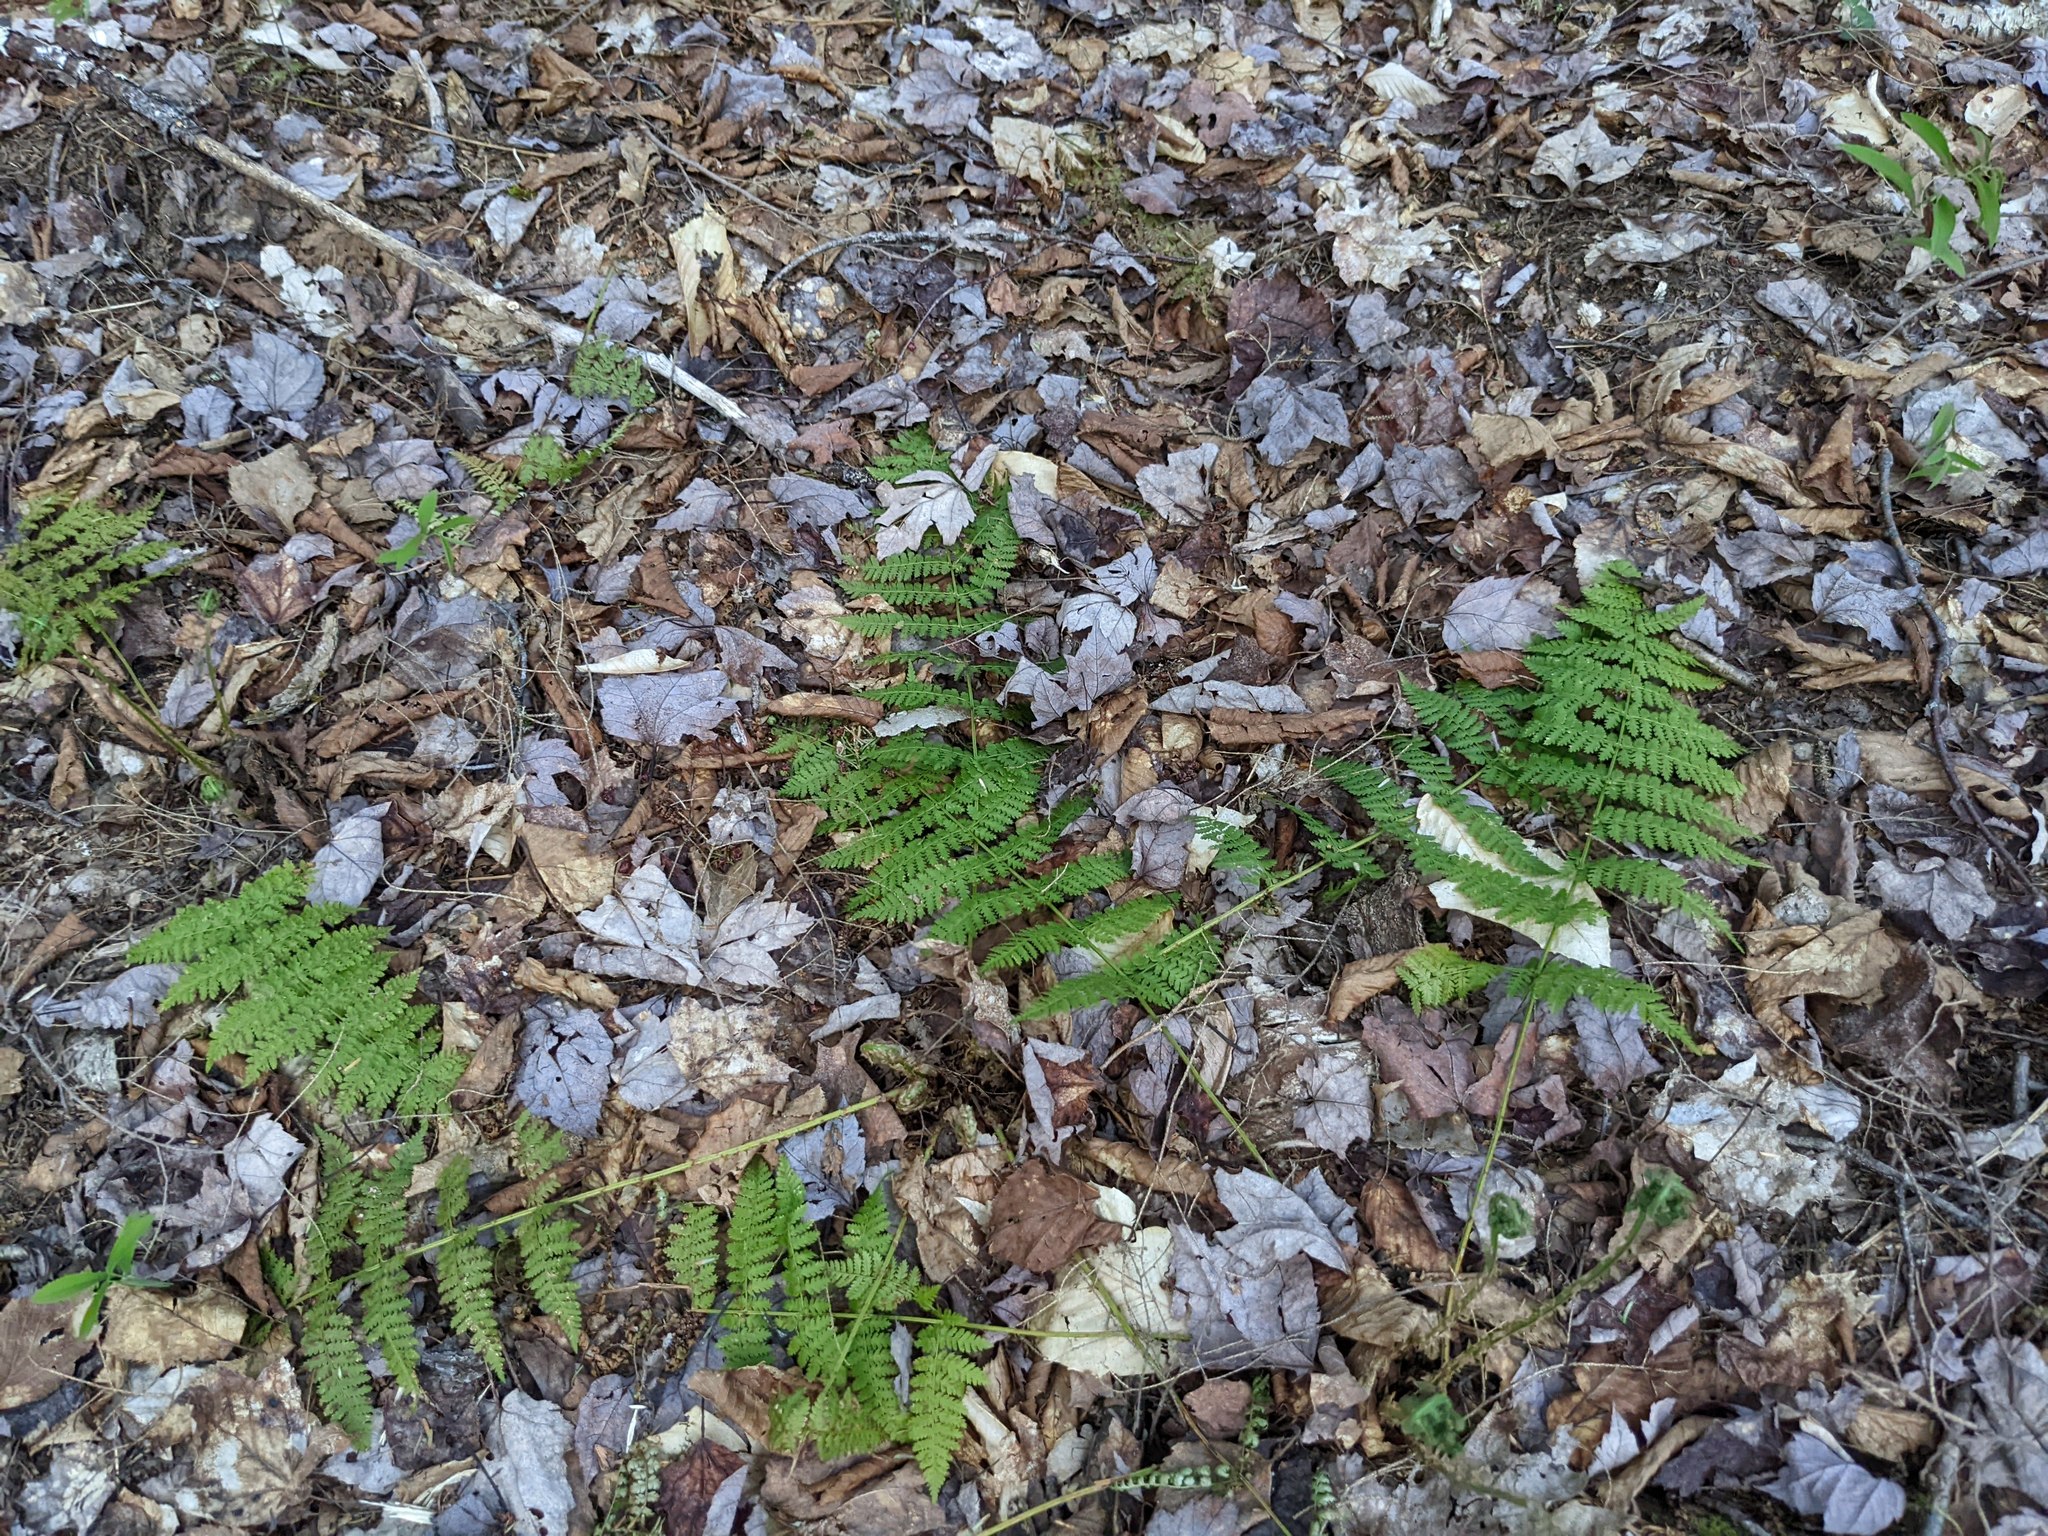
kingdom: Plantae
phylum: Tracheophyta
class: Polypodiopsida
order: Polypodiales
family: Dryopteridaceae
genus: Dryopteris
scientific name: Dryopteris intermedia
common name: Evergreen wood fern
